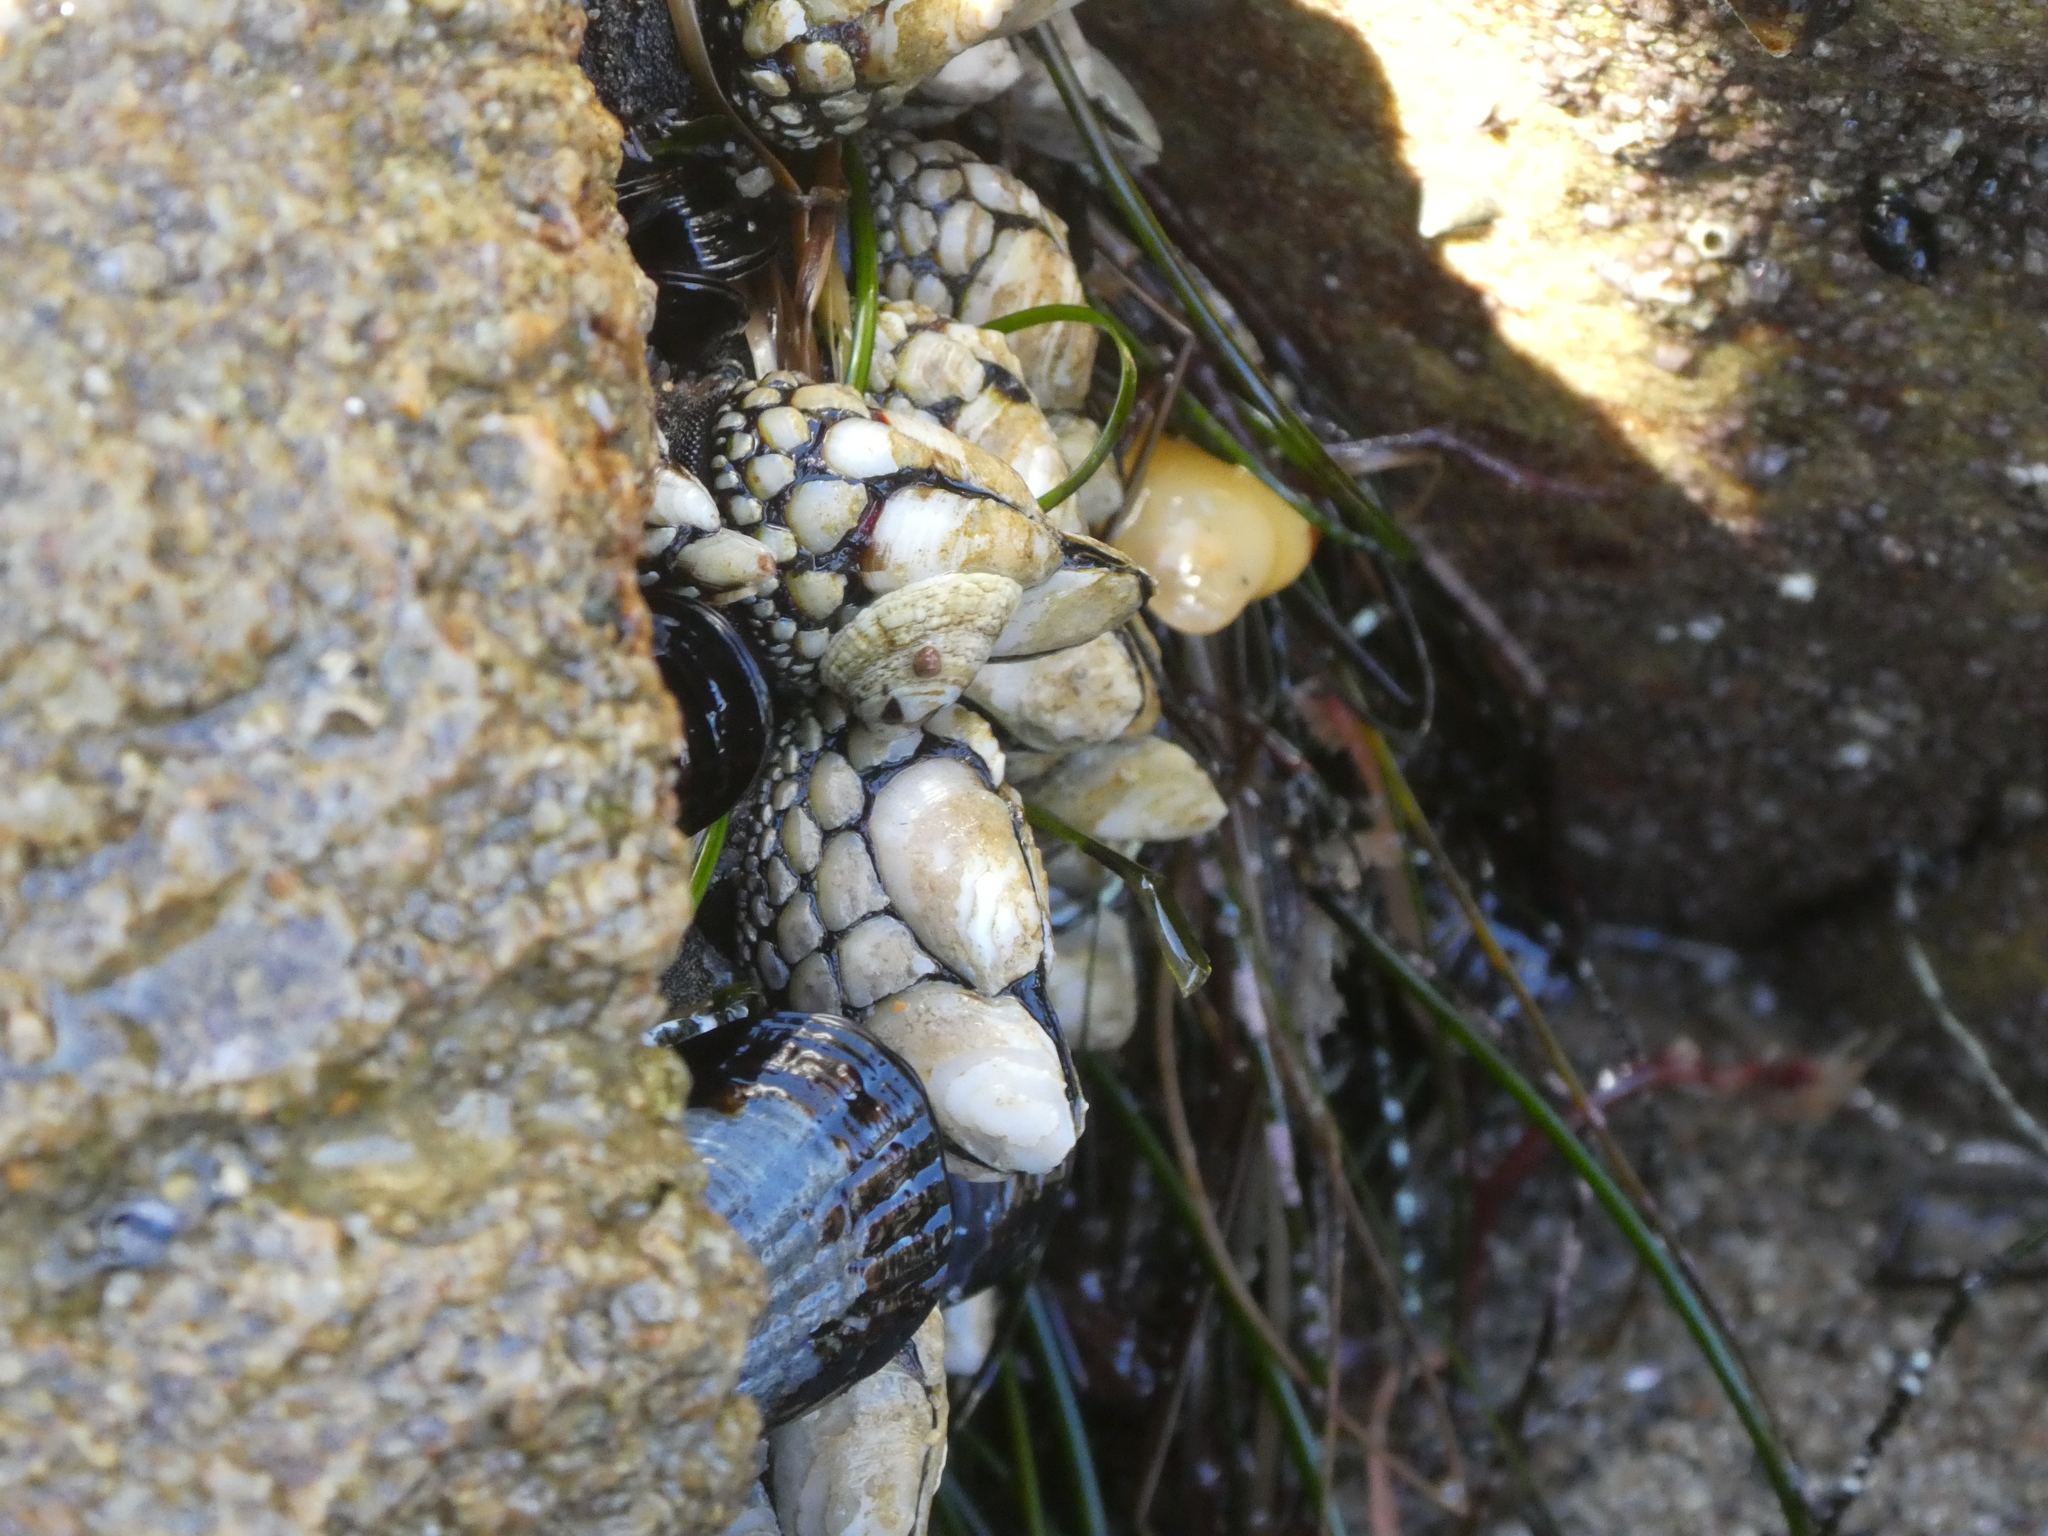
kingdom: Animalia
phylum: Arthropoda
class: Maxillopoda
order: Pedunculata
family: Pollicipedidae
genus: Pollicipes
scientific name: Pollicipes polymerus
